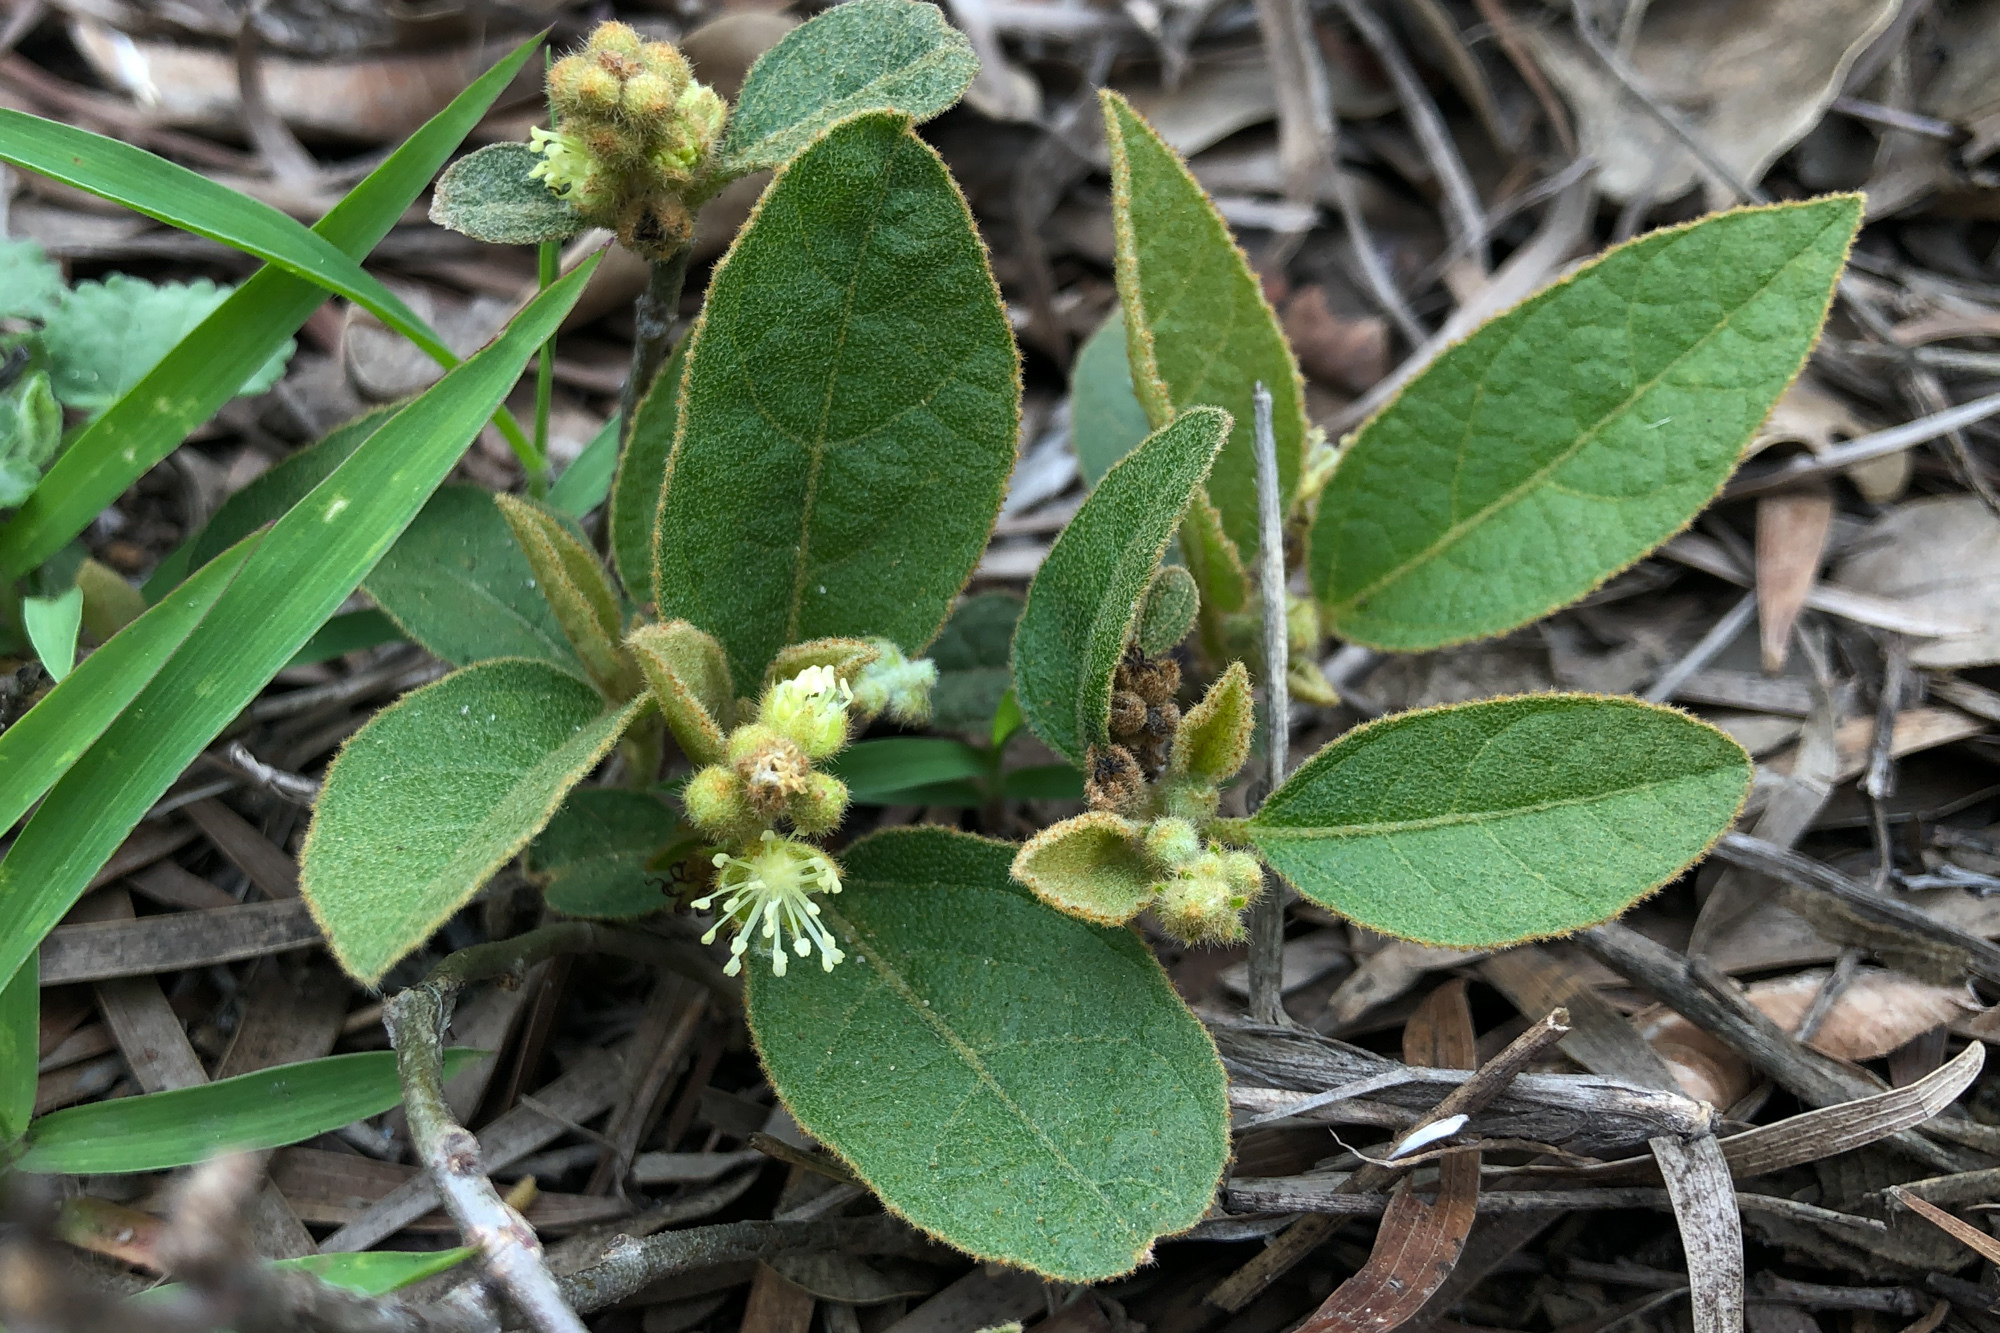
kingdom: Plantae
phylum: Tracheophyta
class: Magnoliopsida
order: Malpighiales
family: Euphorbiaceae
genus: Croton
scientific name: Croton crassifolius
